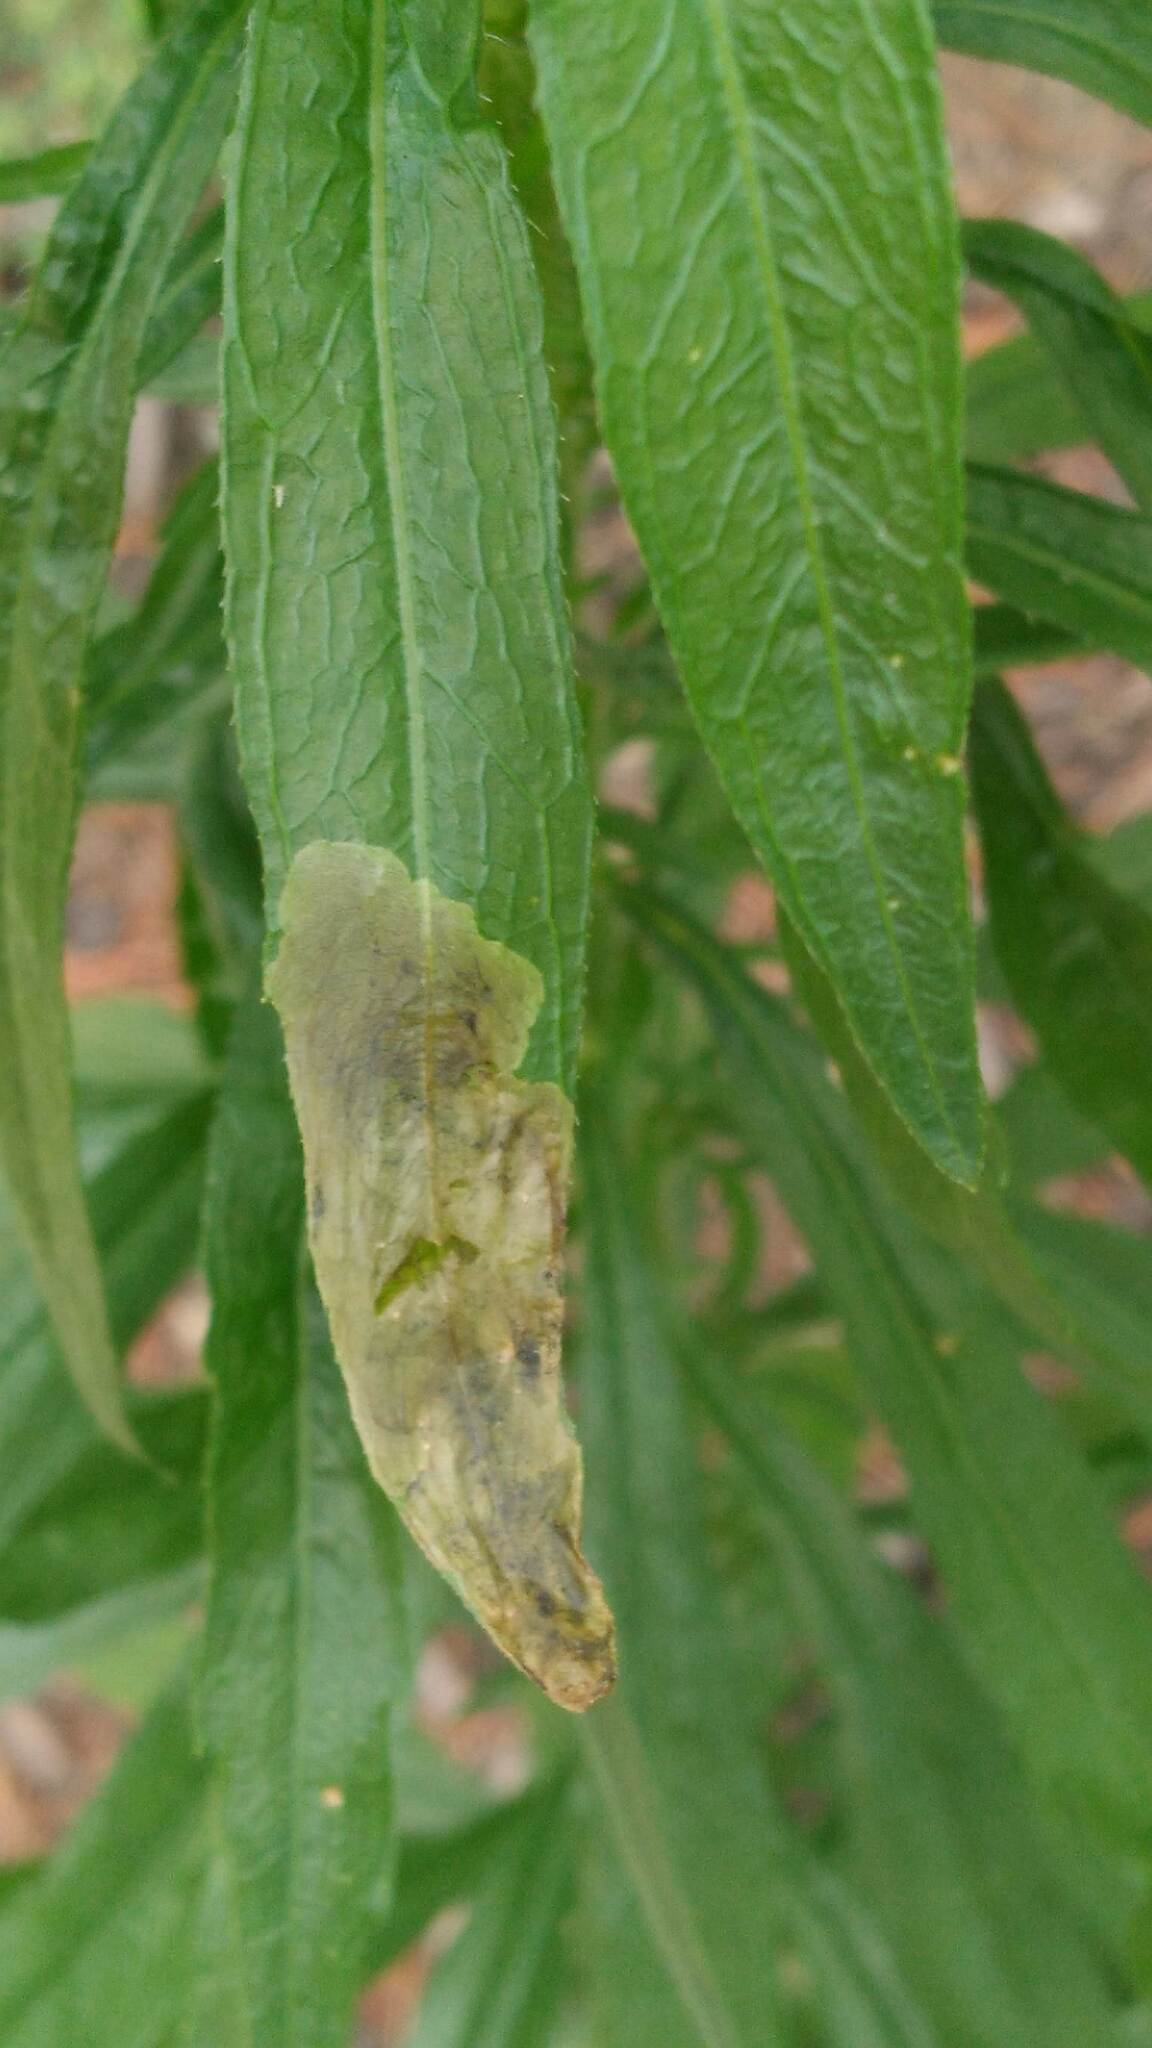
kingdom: Animalia
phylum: Arthropoda
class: Insecta
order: Diptera
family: Agromyzidae
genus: Nemorimyza
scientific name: Nemorimyza maculosa
